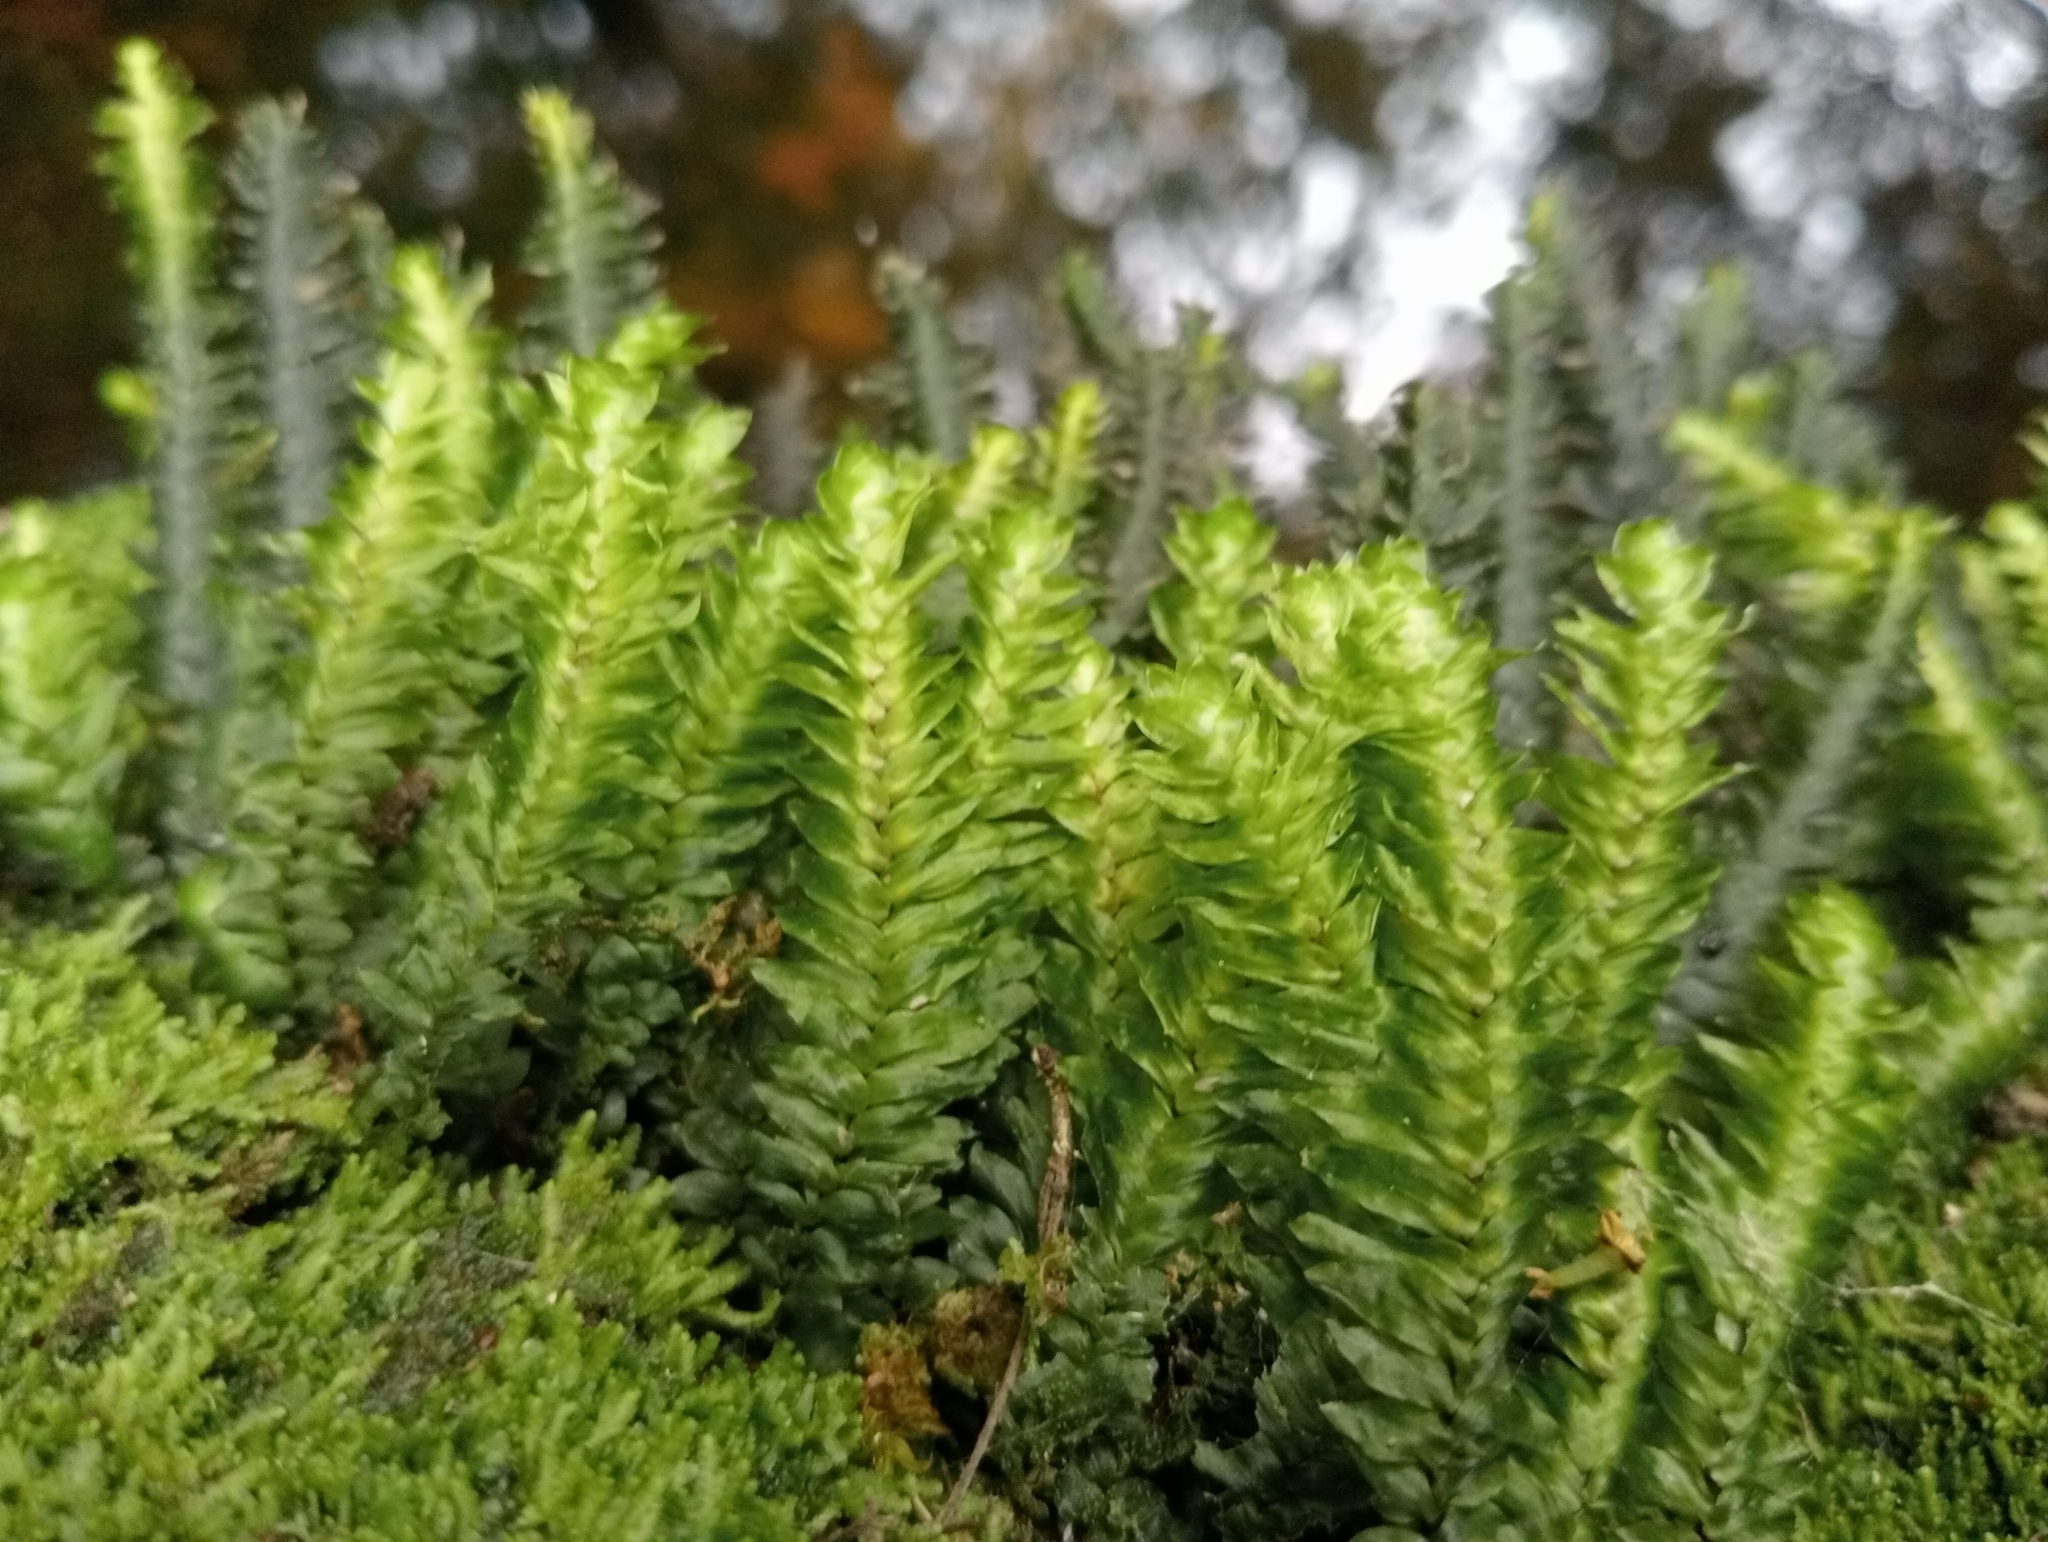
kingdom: Plantae
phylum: Bryophyta
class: Bryopsida
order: Hypopterygiales
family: Hypopterygiaceae
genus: Cyathophorum
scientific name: Cyathophorum bulbosum
